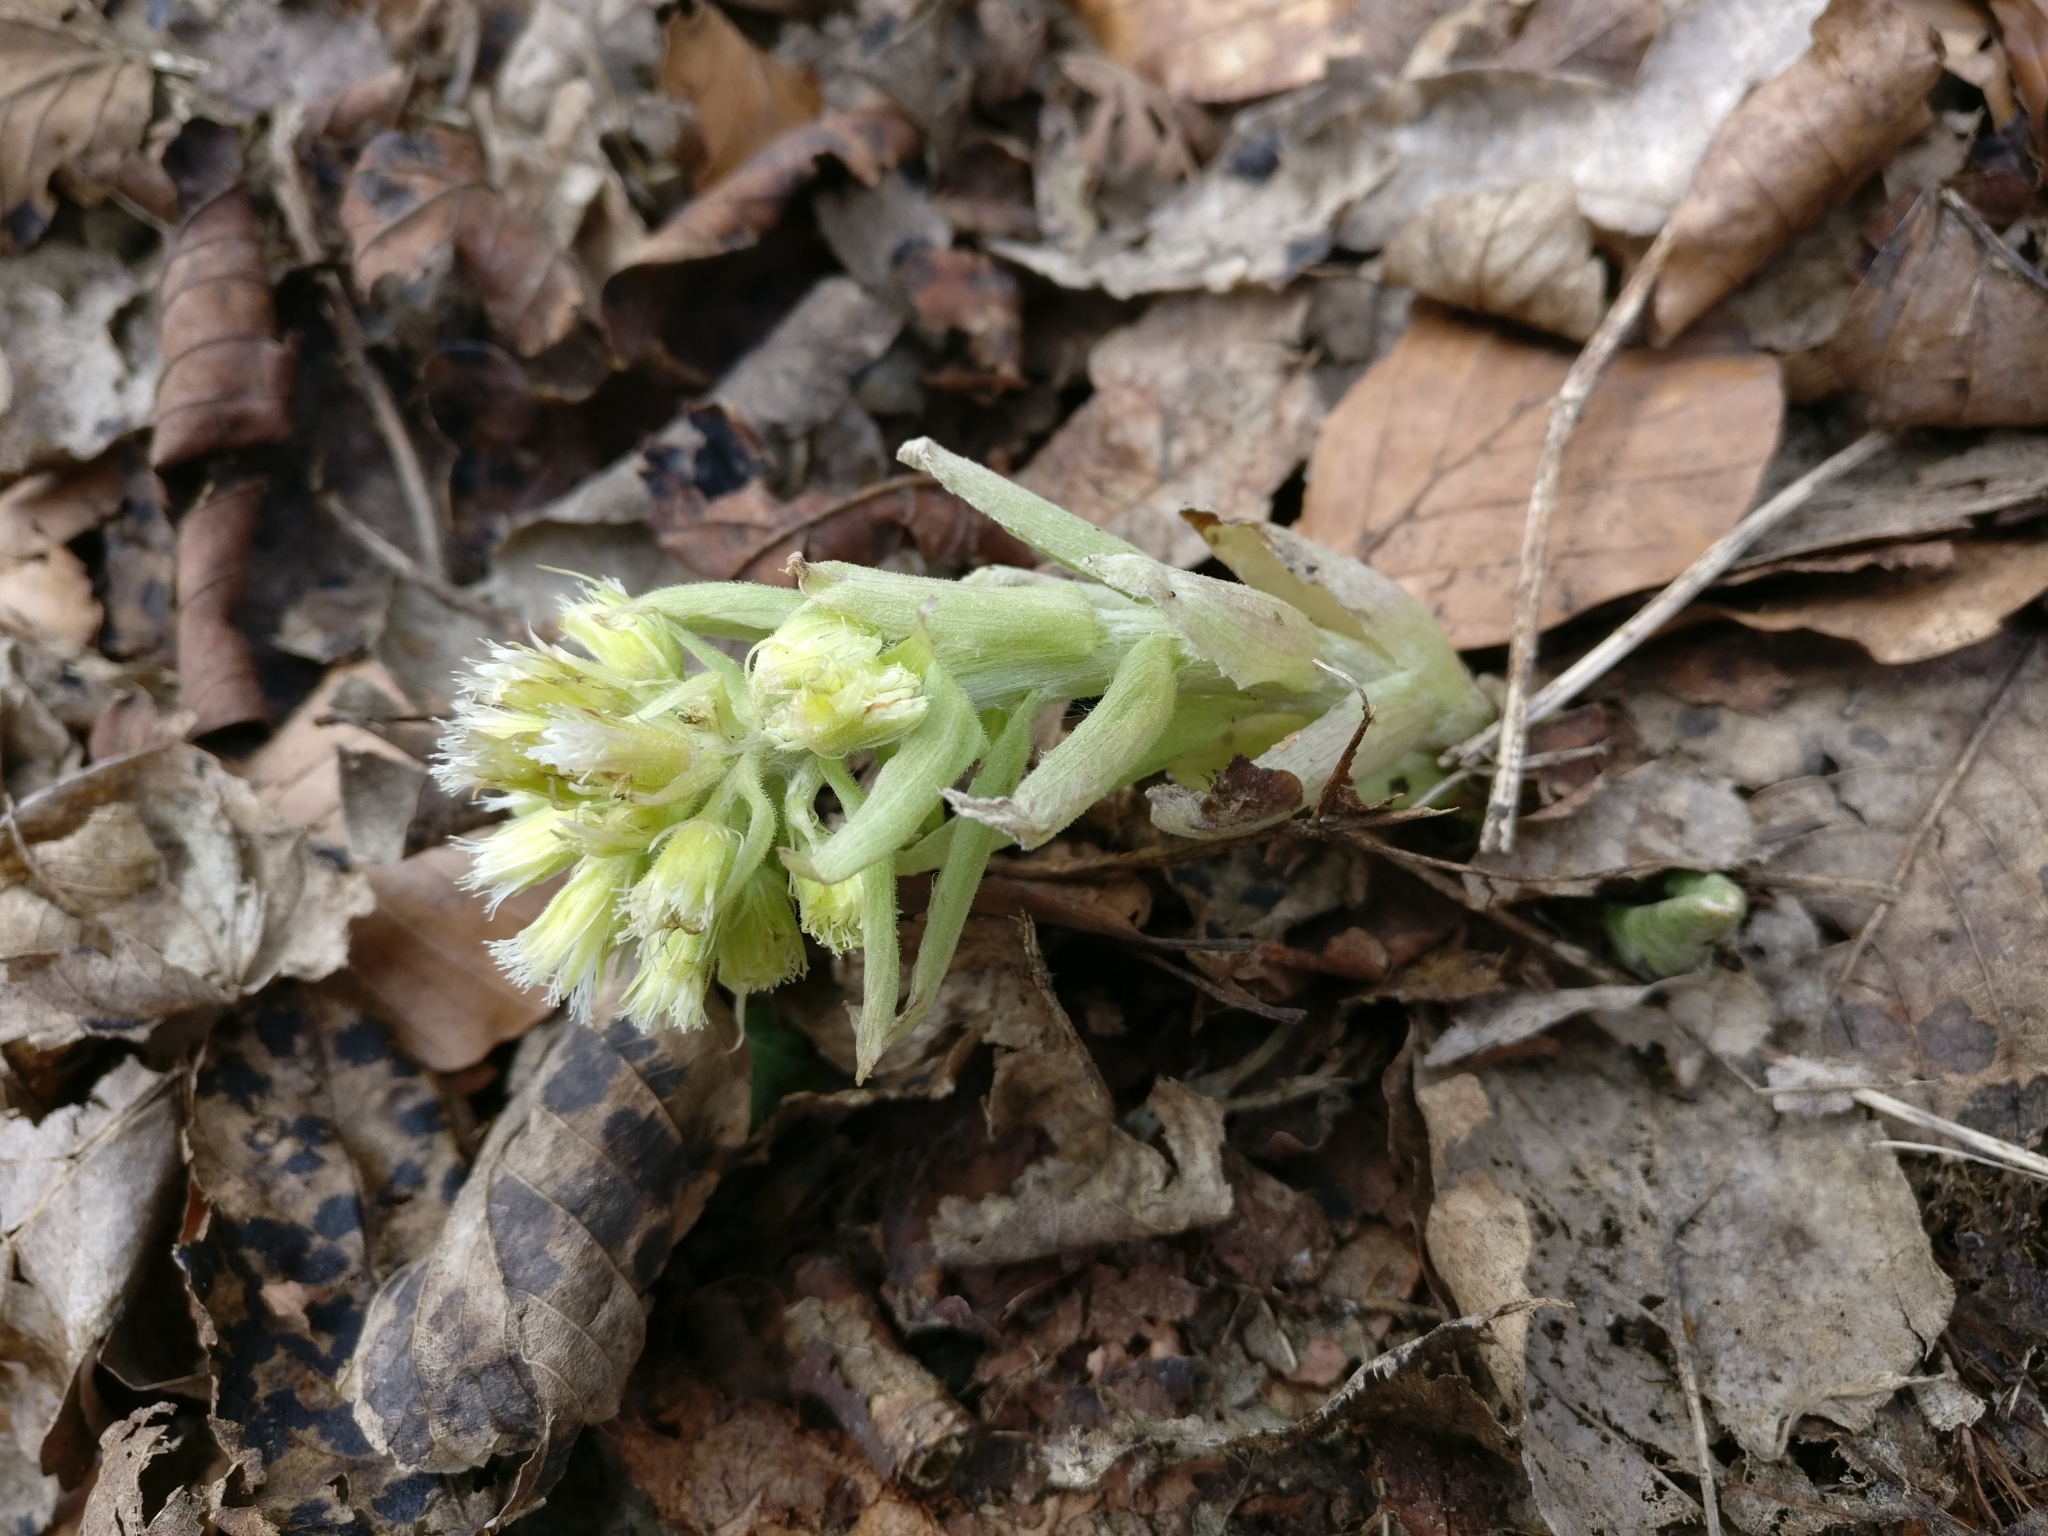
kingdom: Plantae
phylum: Tracheophyta
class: Magnoliopsida
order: Asterales
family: Asteraceae
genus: Petasites
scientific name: Petasites albus
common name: White butterbur
